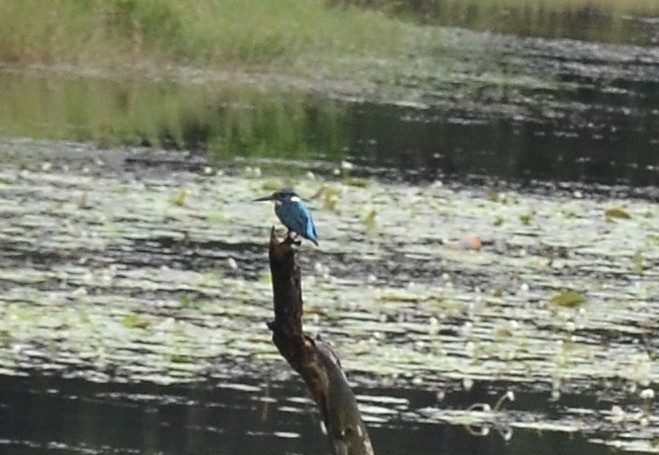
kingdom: Animalia
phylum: Chordata
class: Aves
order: Coraciiformes
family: Alcedinidae
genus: Alcedo
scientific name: Alcedo atthis
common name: Common kingfisher
